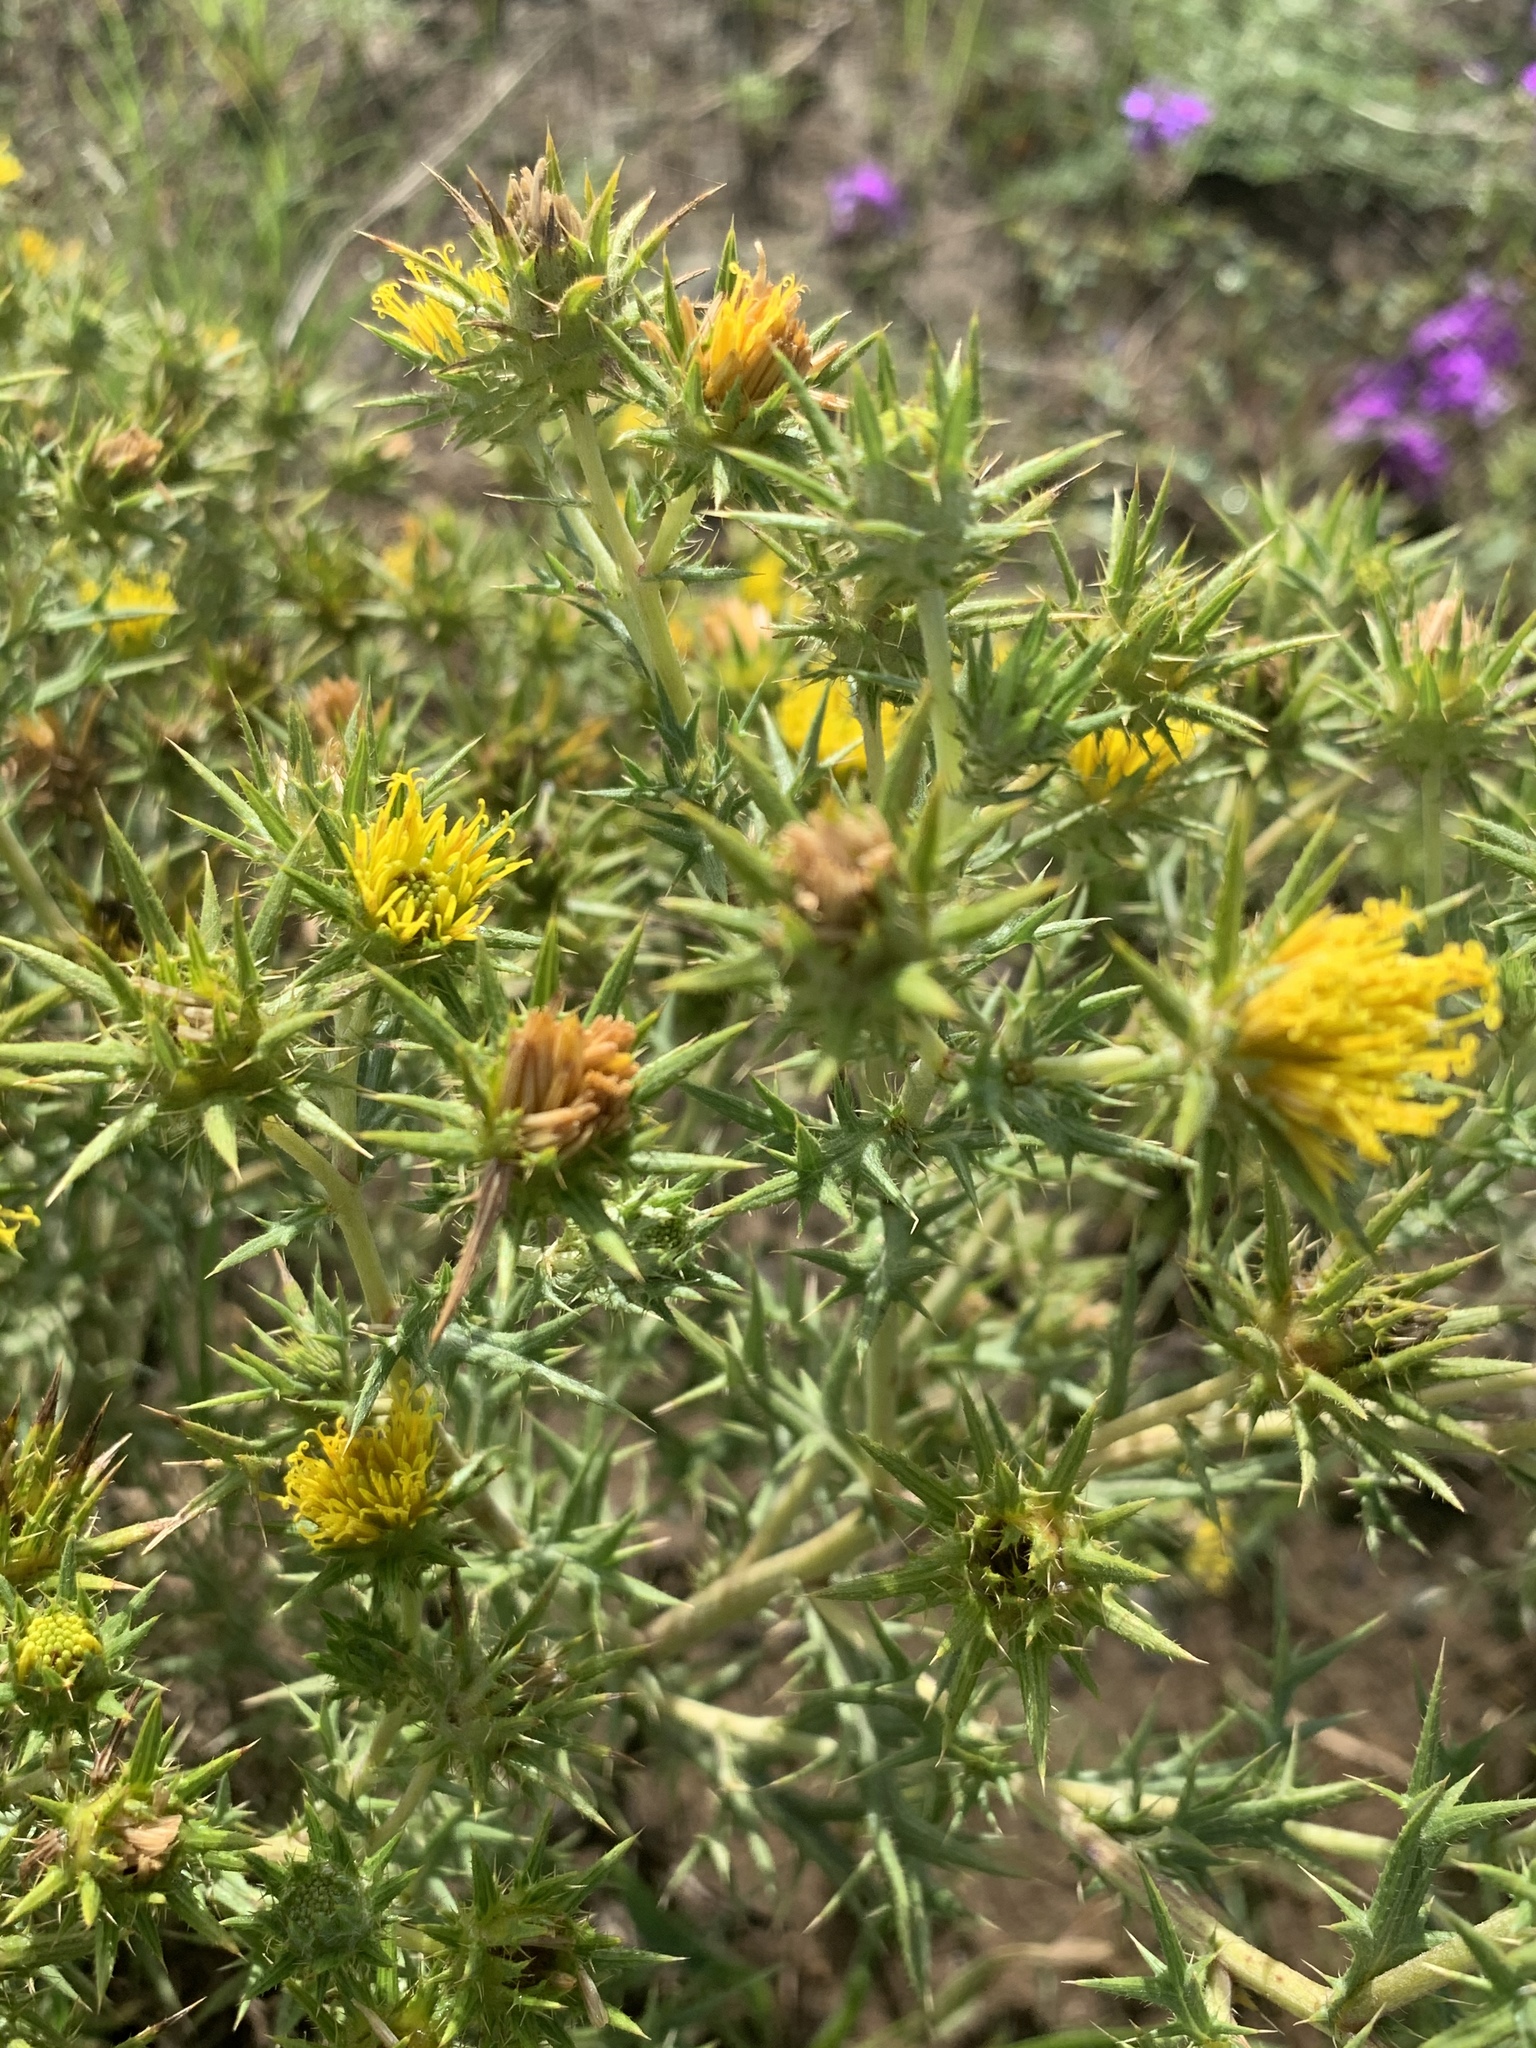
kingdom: Plantae
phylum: Tracheophyta
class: Magnoliopsida
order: Asterales
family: Asteraceae
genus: Berkheya
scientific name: Berkheya pinnatifida
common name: Lobed african thistle
